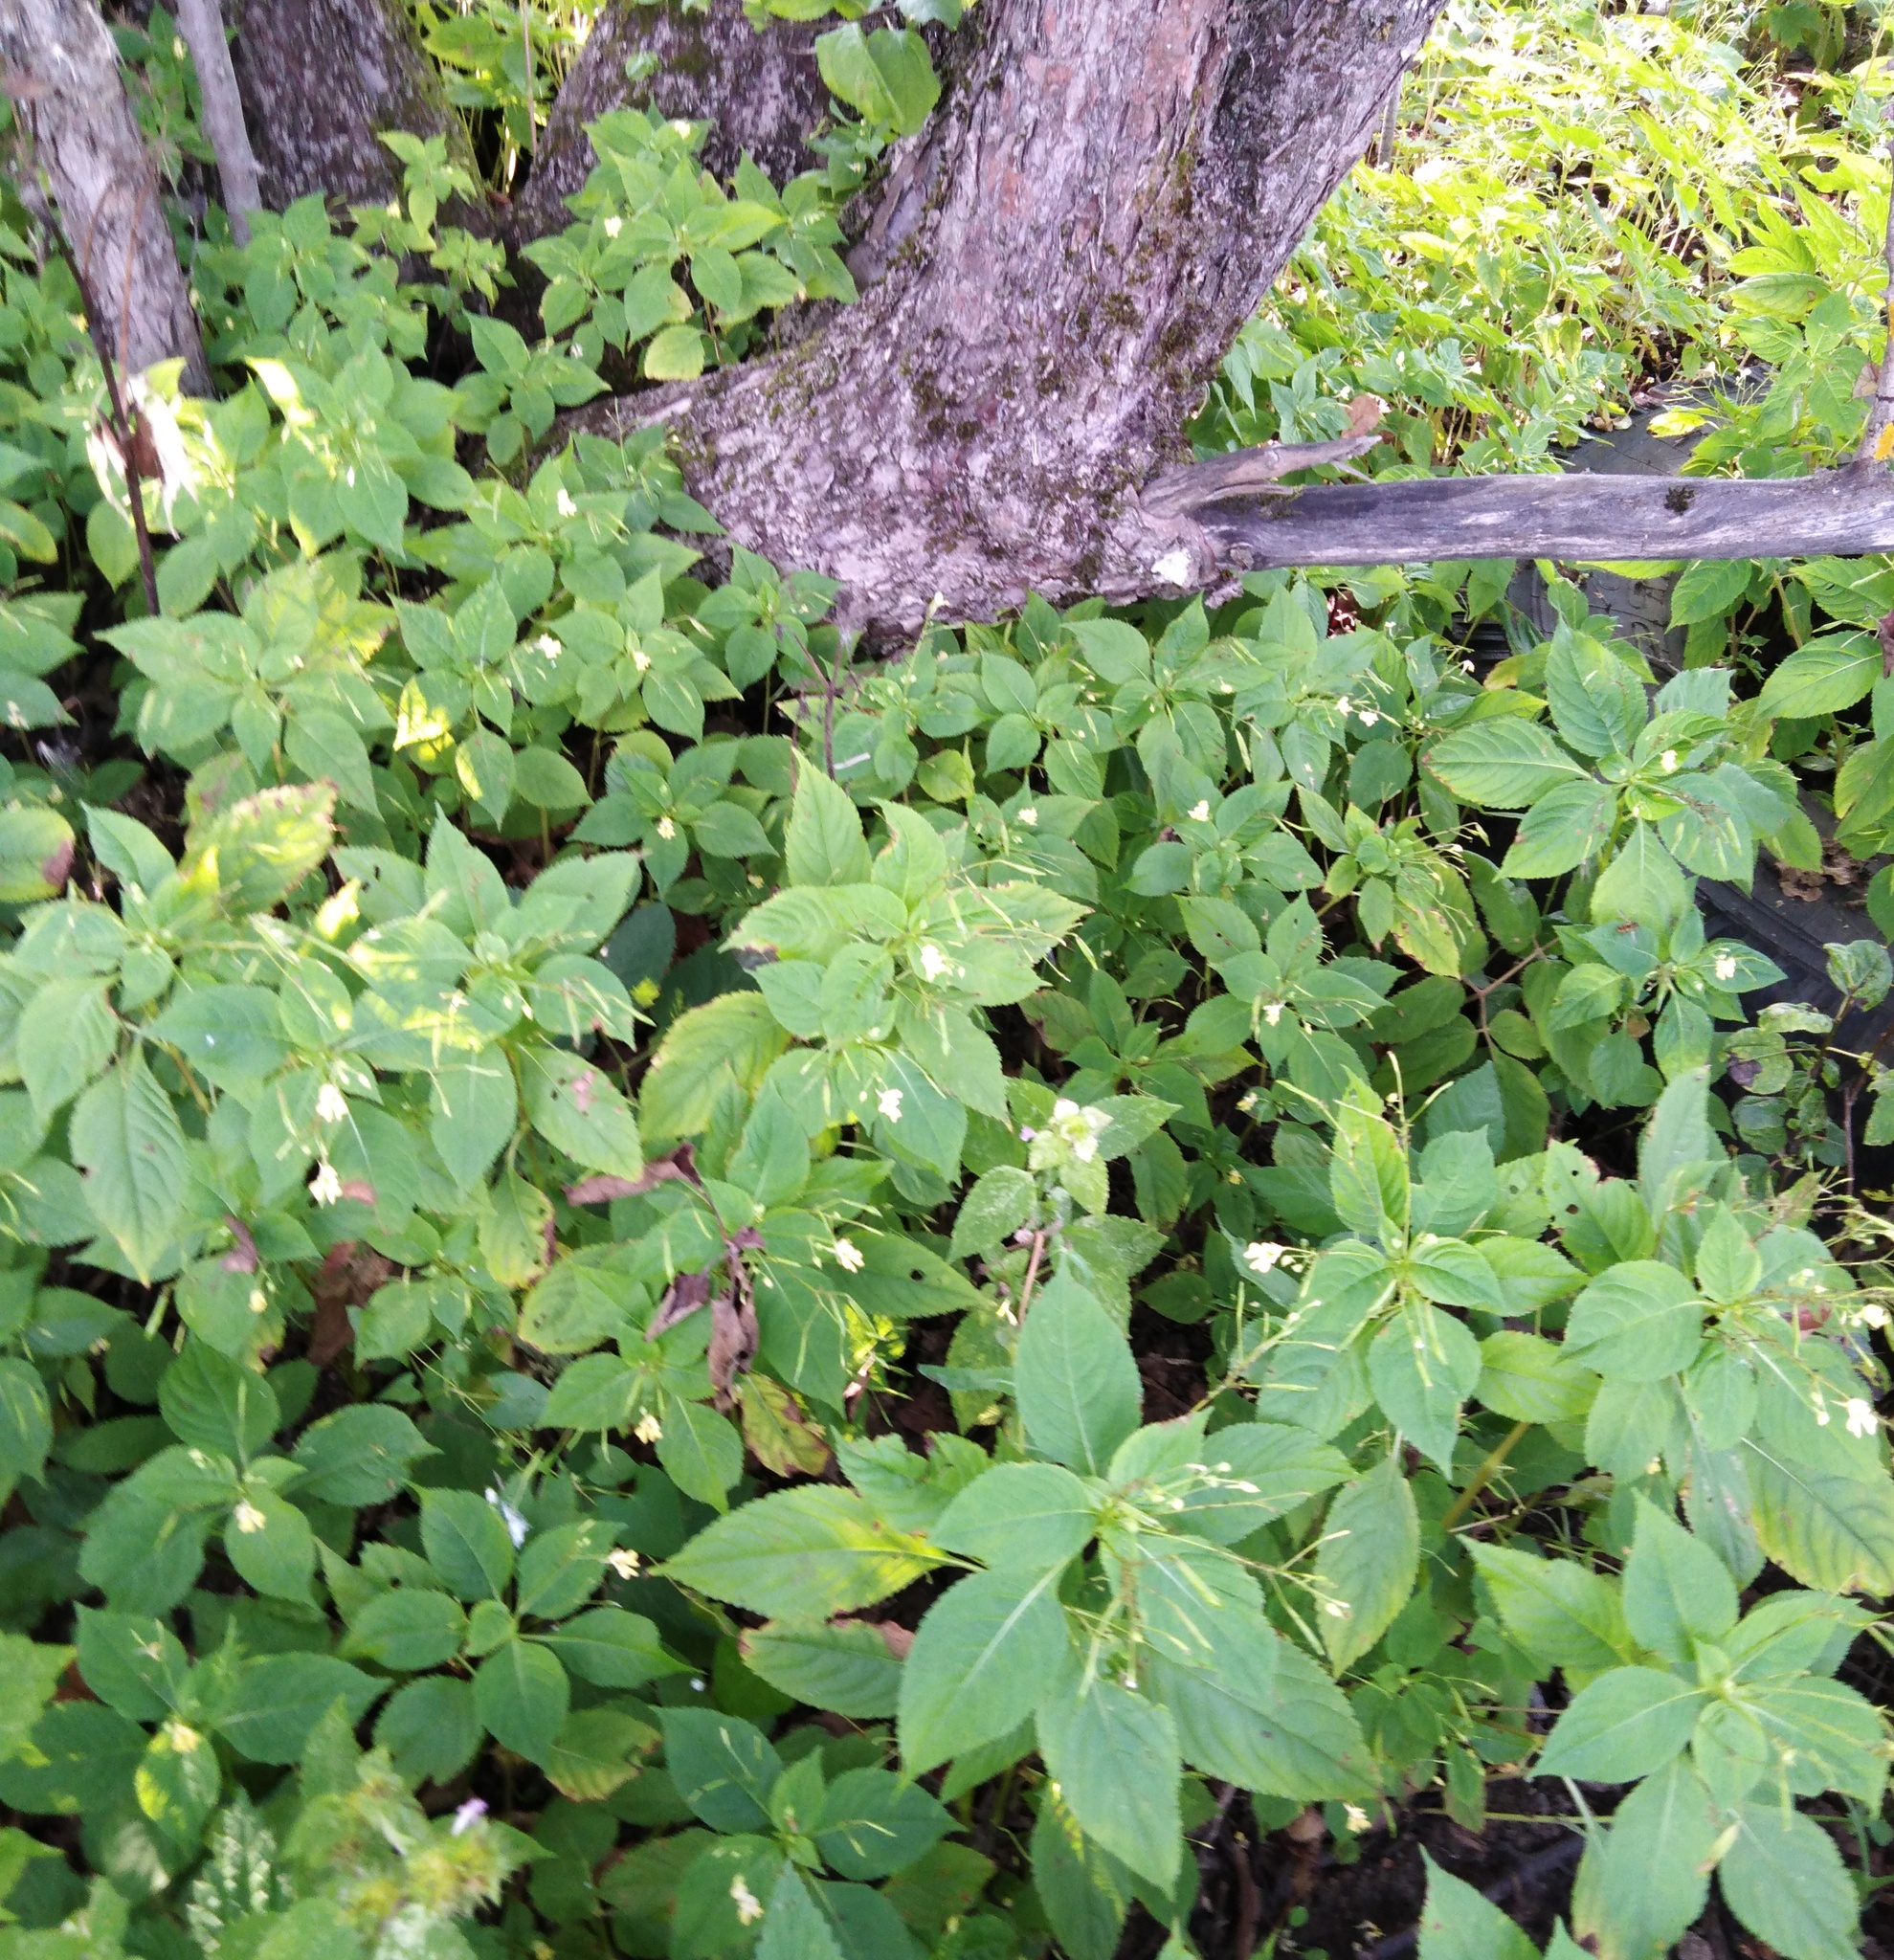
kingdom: Plantae
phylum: Tracheophyta
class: Magnoliopsida
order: Ericales
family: Balsaminaceae
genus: Impatiens
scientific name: Impatiens parviflora
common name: Small balsam
